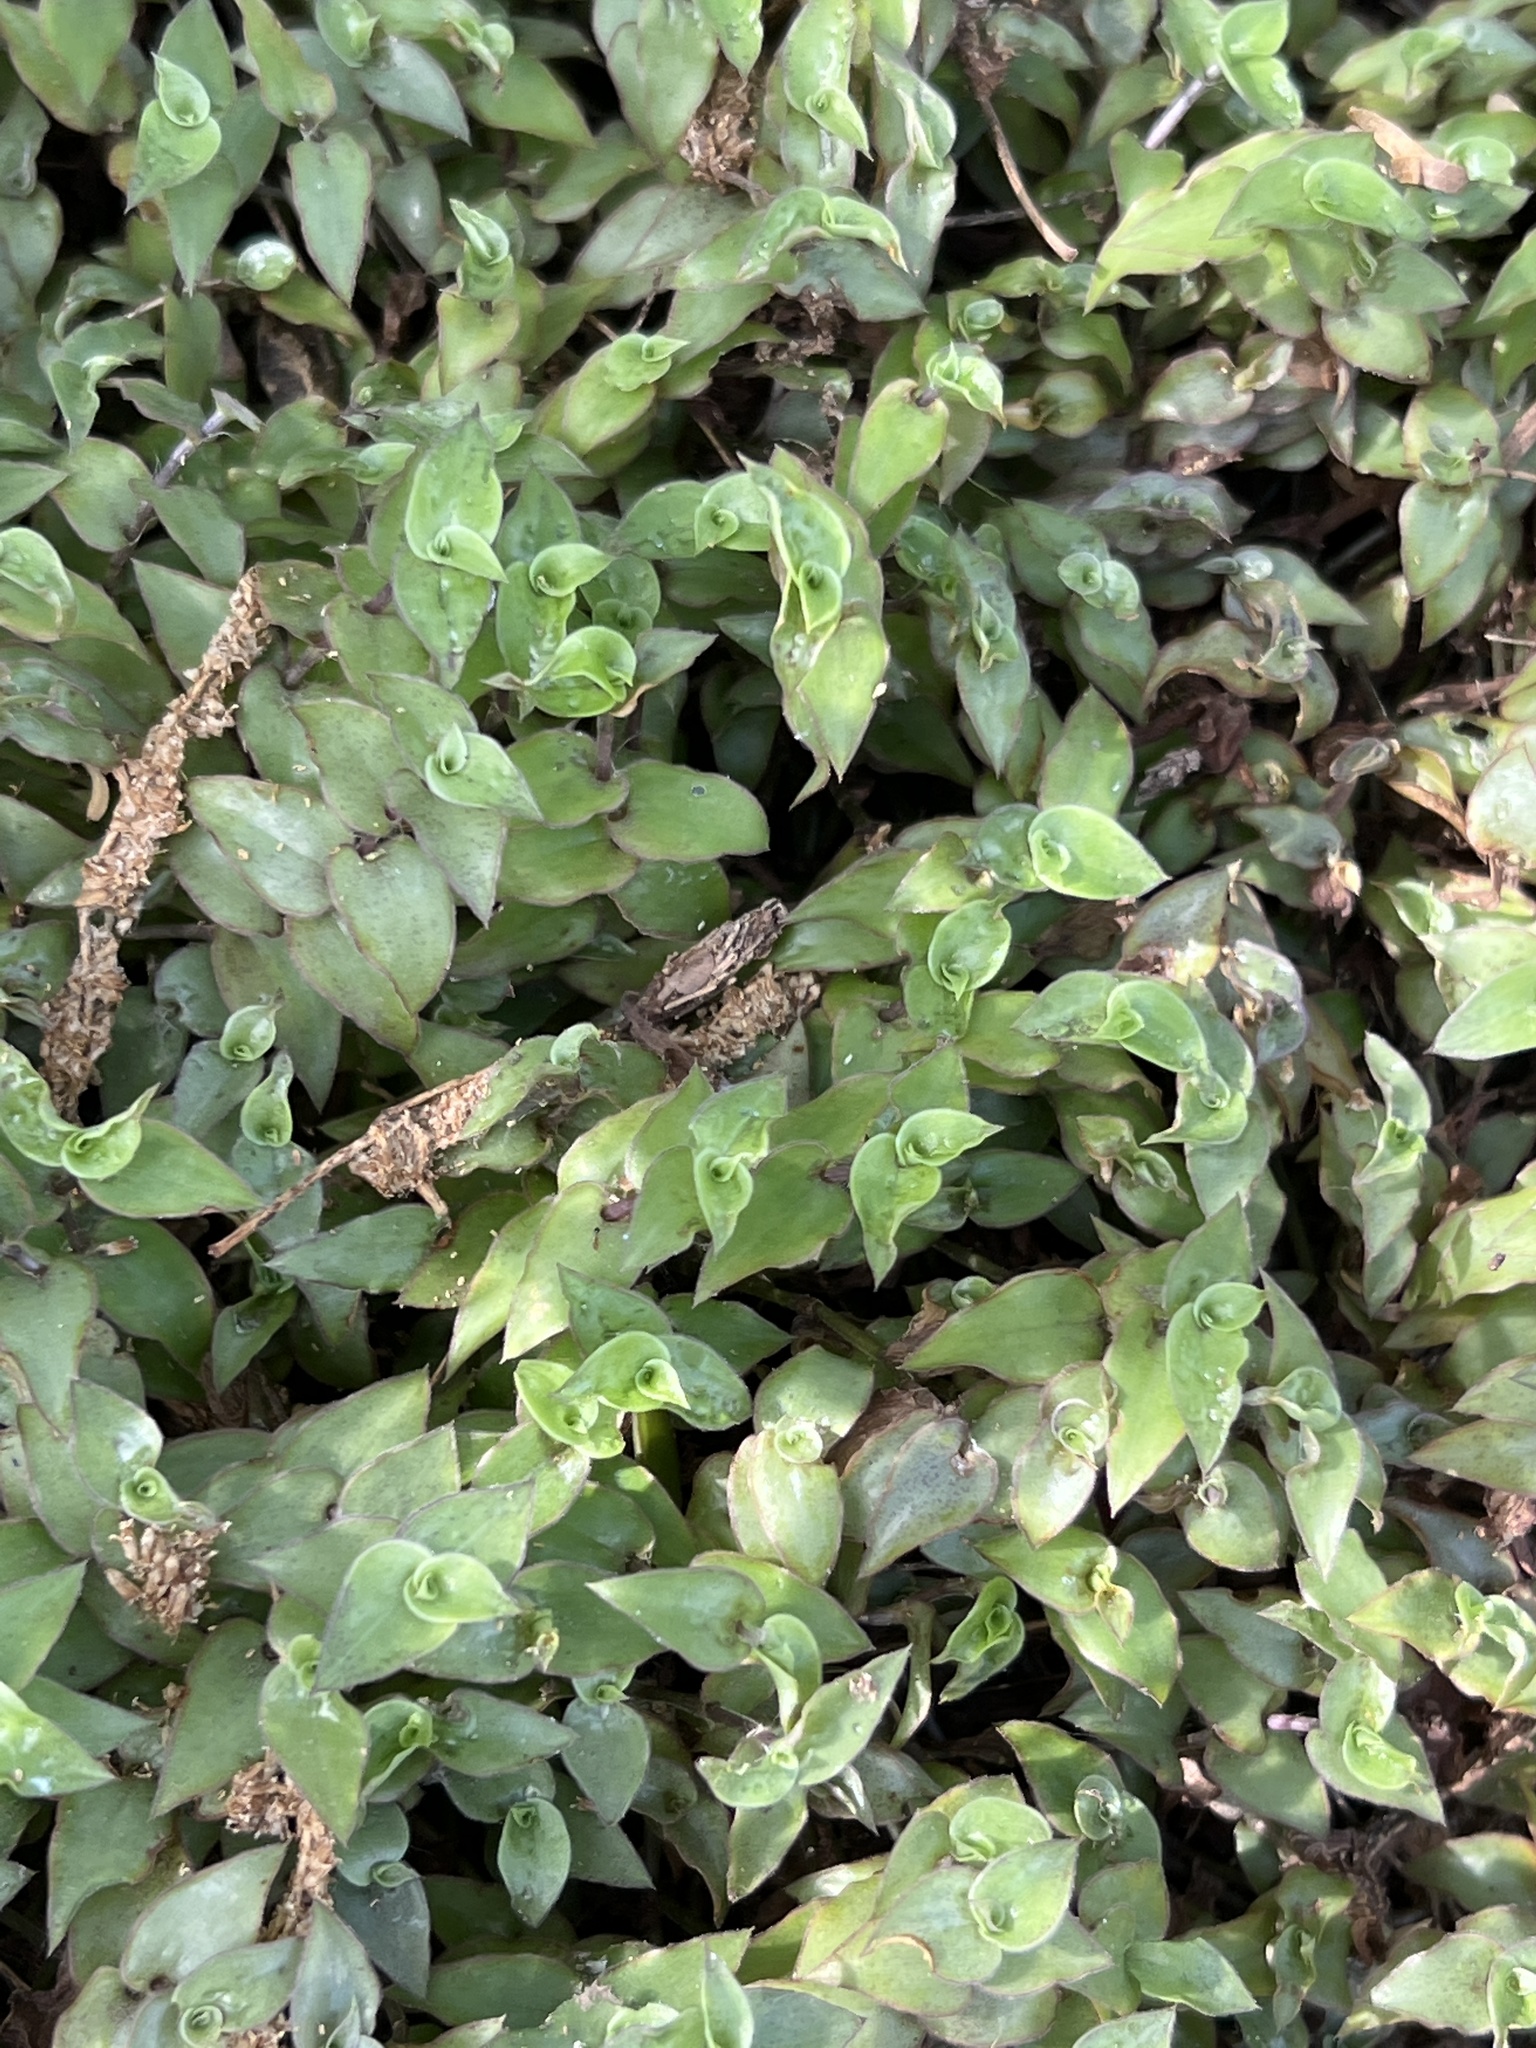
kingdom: Plantae
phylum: Tracheophyta
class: Liliopsida
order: Commelinales
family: Commelinaceae
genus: Callisia
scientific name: Callisia repens
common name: Creeping inchplant
